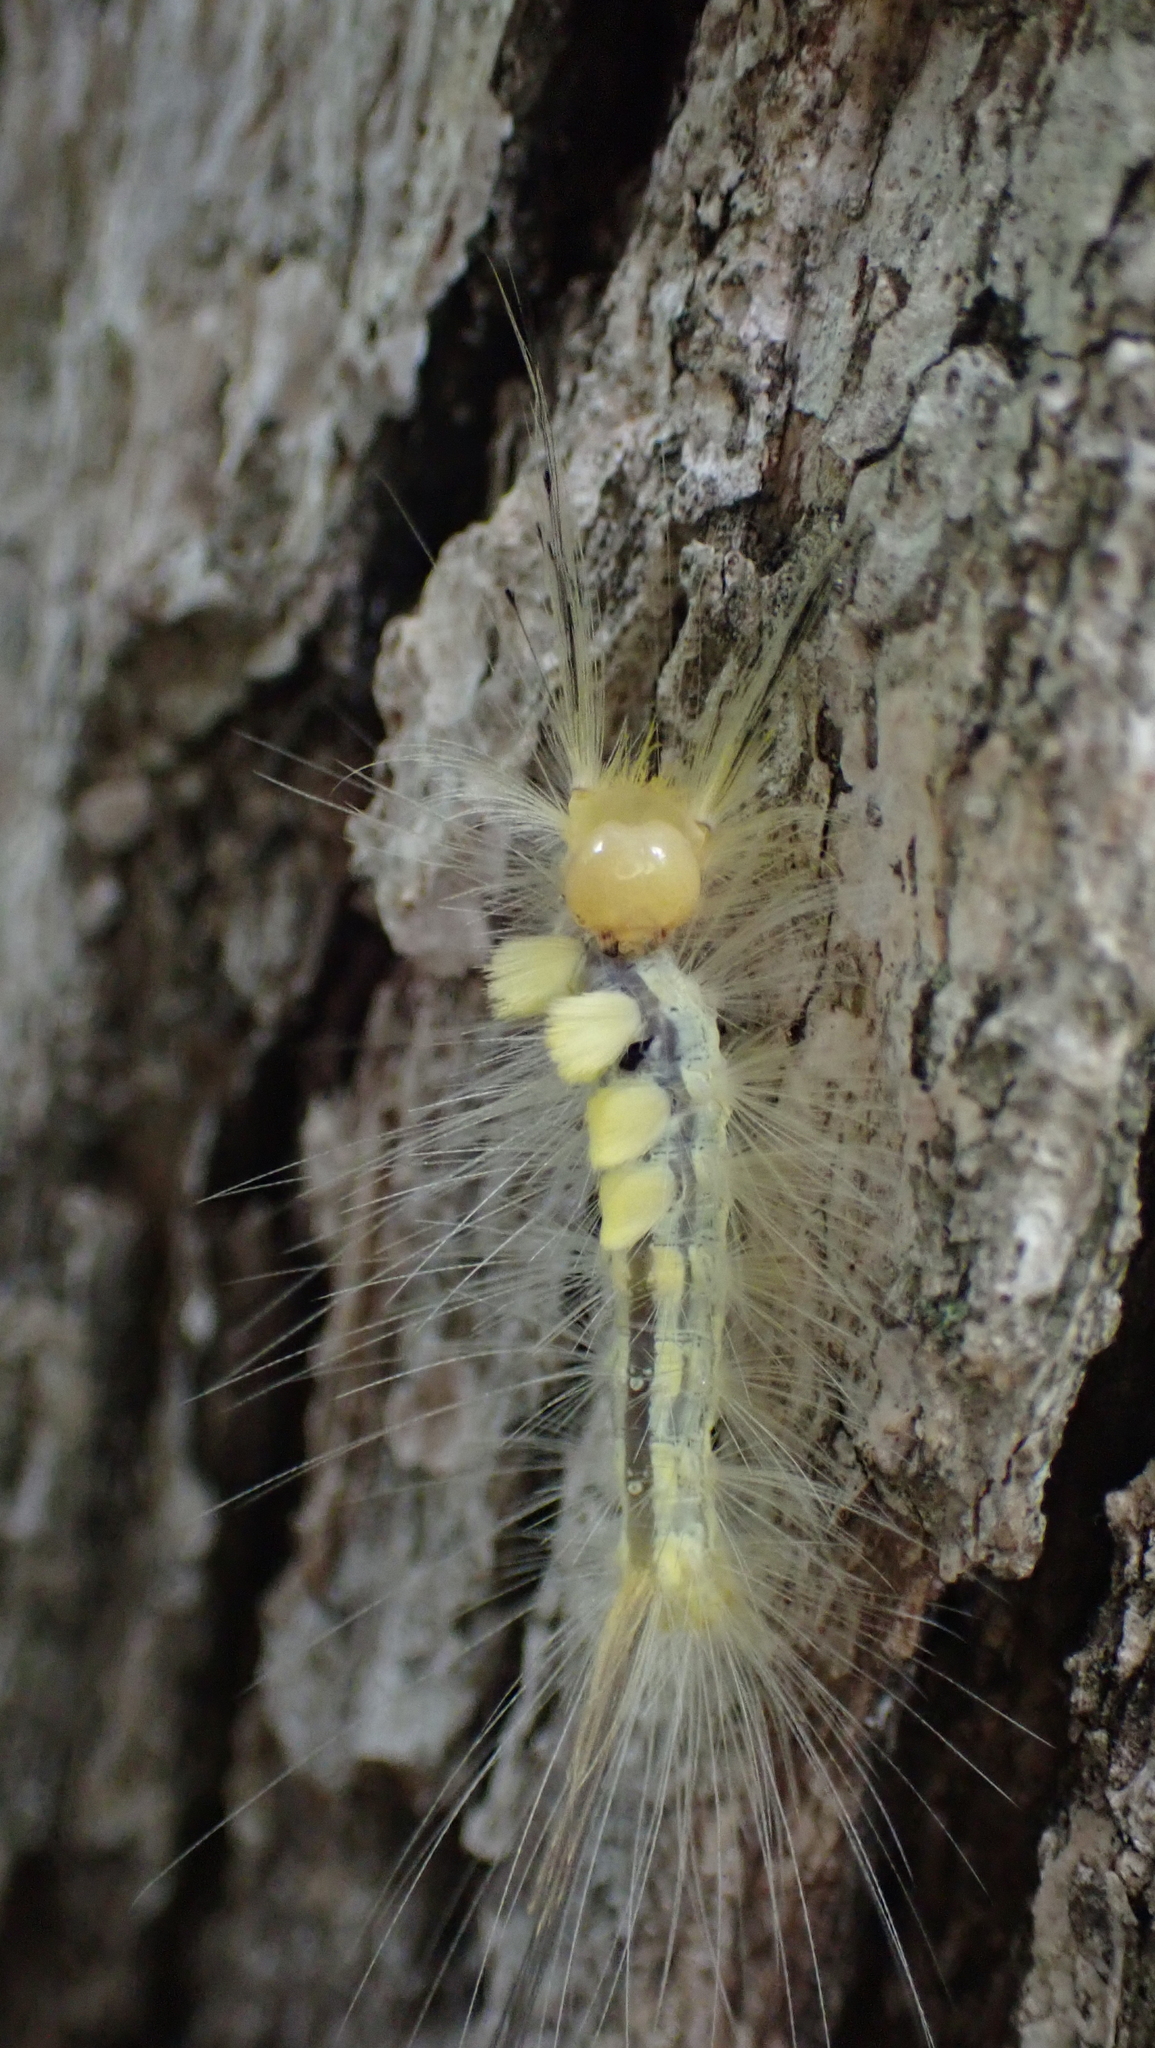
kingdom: Animalia
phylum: Arthropoda
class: Insecta
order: Lepidoptera
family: Erebidae
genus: Orgyia
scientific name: Orgyia definita
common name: Definite tussock moth
